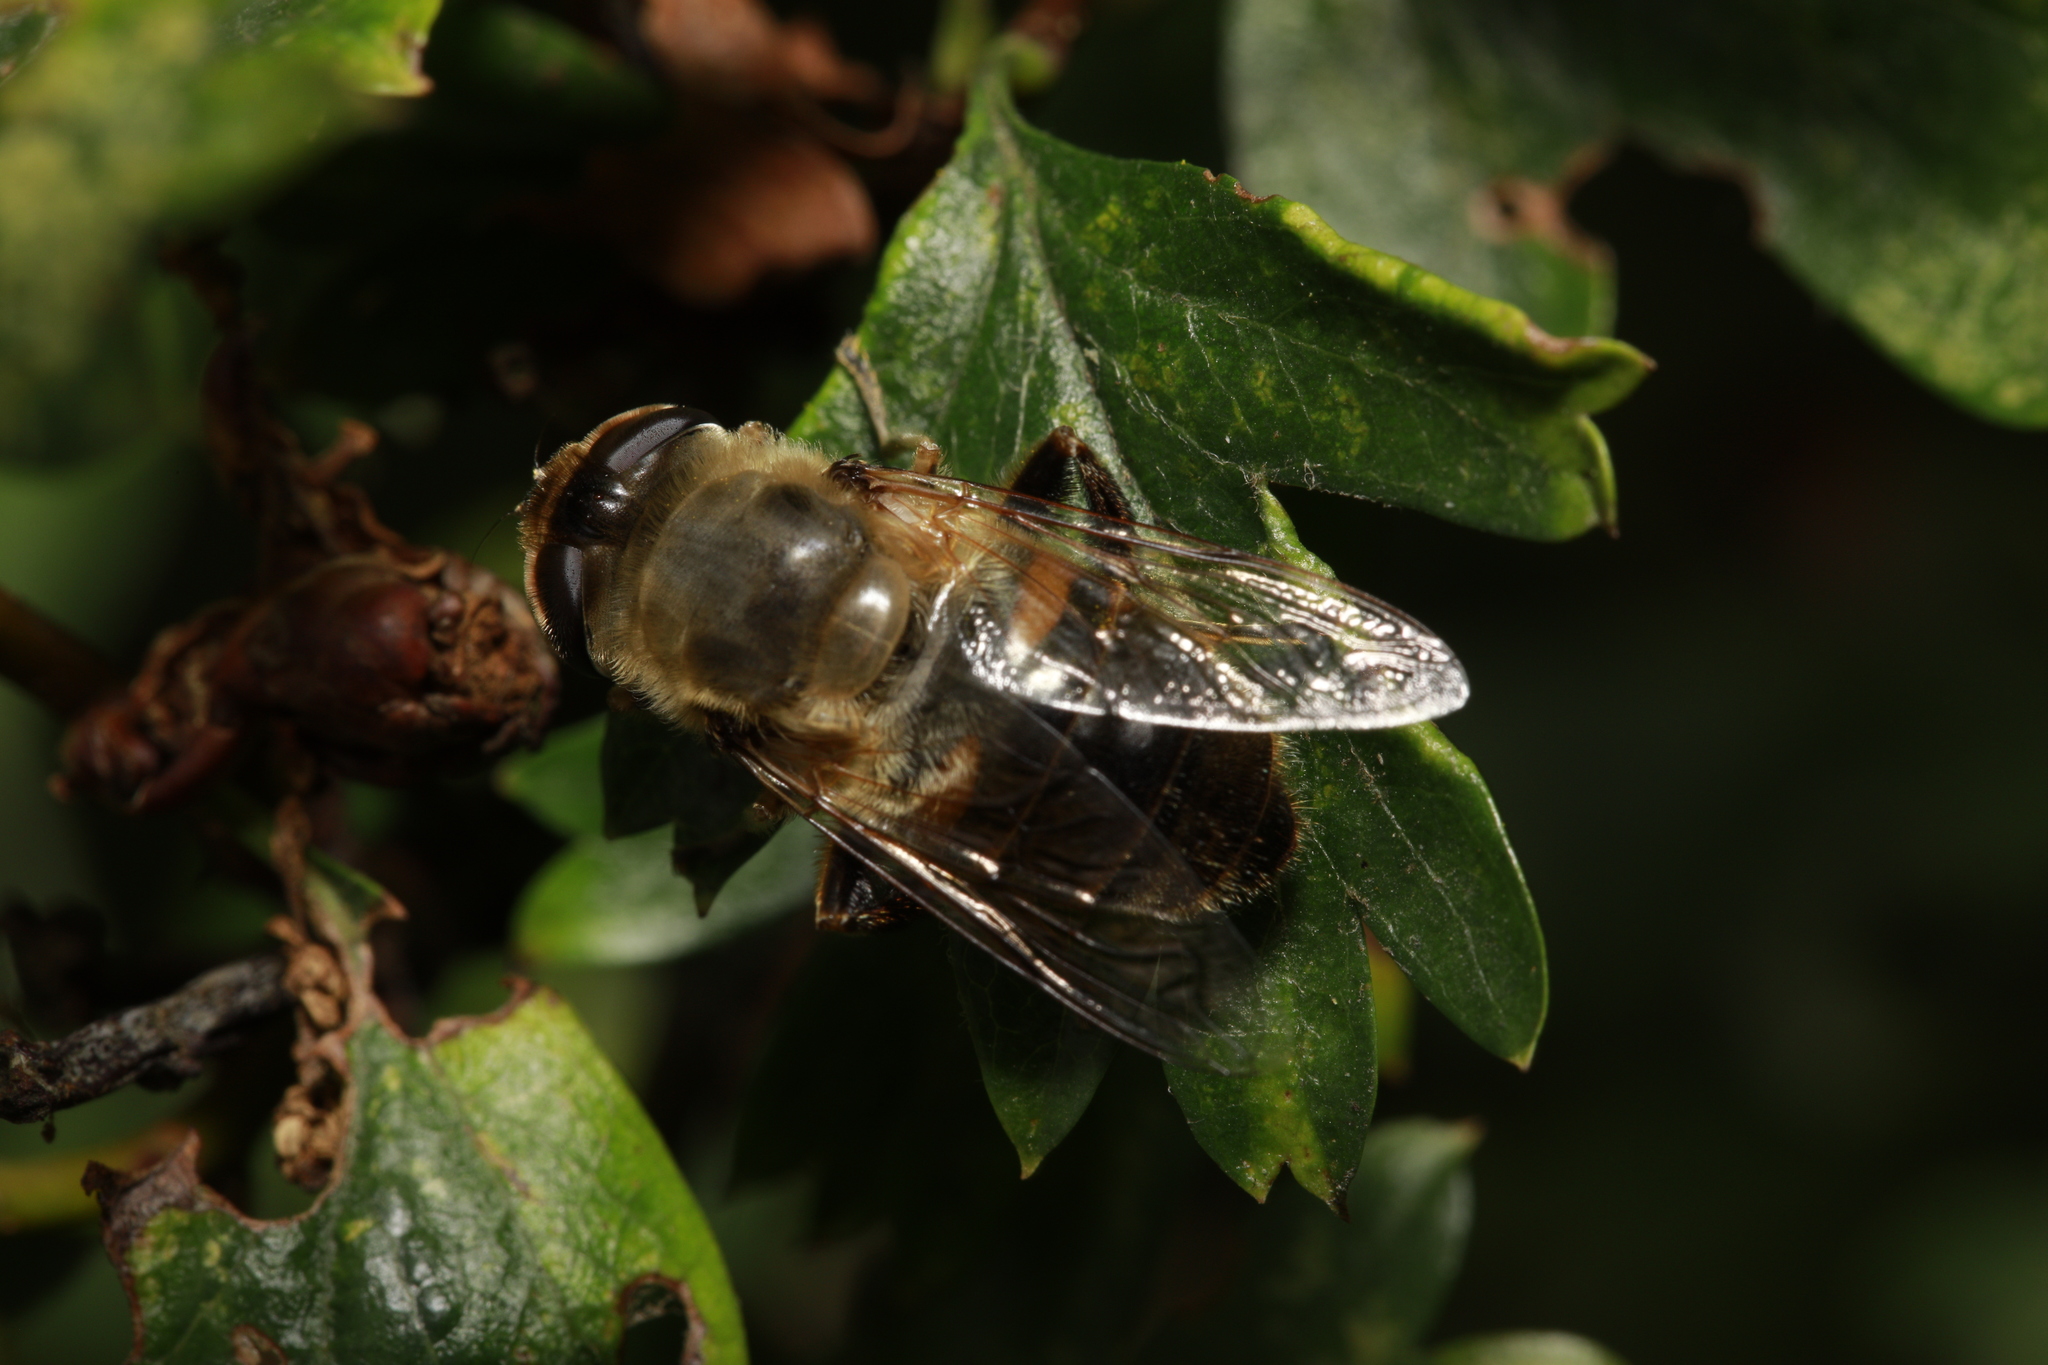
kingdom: Animalia
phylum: Arthropoda
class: Insecta
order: Diptera
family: Syrphidae
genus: Eristalis
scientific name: Eristalis tenax
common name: Drone fly
